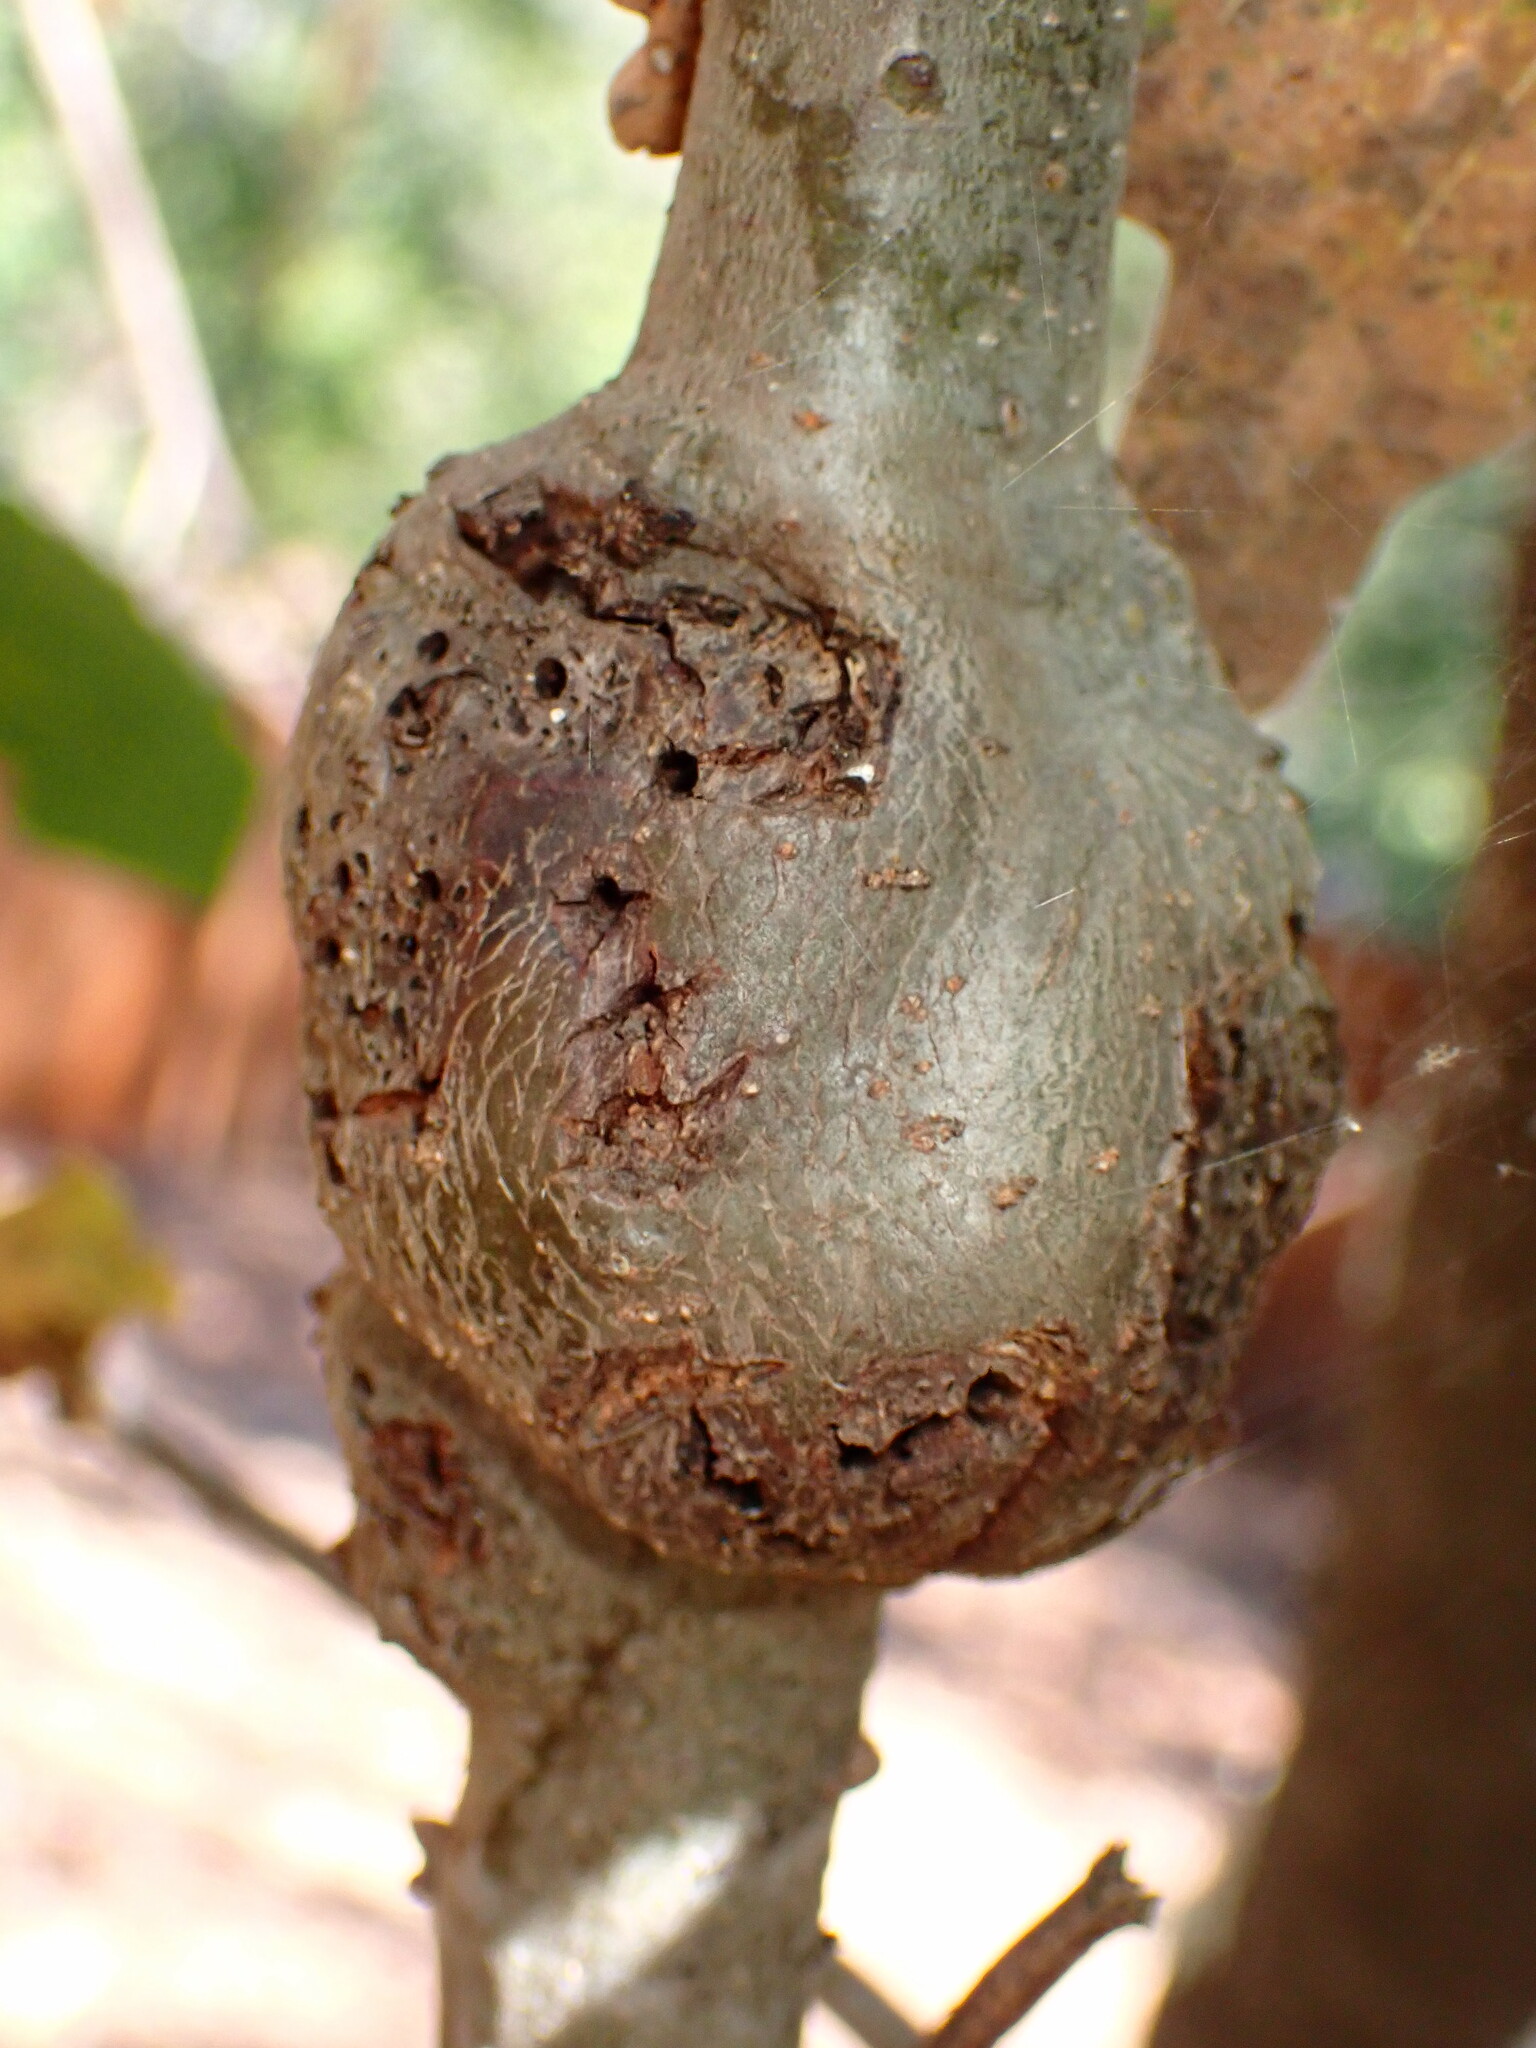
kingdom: Animalia
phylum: Arthropoda
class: Insecta
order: Hymenoptera
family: Cynipidae
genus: Callirhytis
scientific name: Callirhytis
